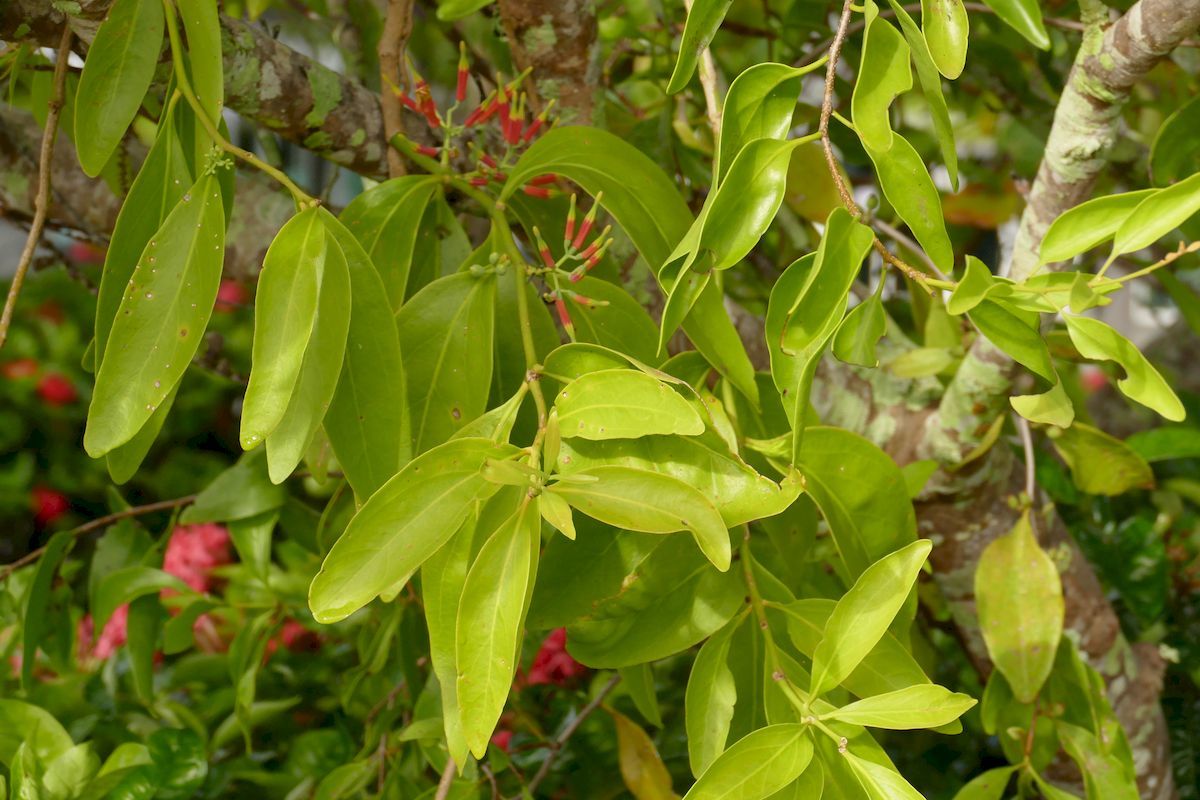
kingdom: Plantae
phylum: Tracheophyta
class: Magnoliopsida
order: Santalales
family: Loranthaceae
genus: Amylotheca
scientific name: Amylotheca dictyophleba
